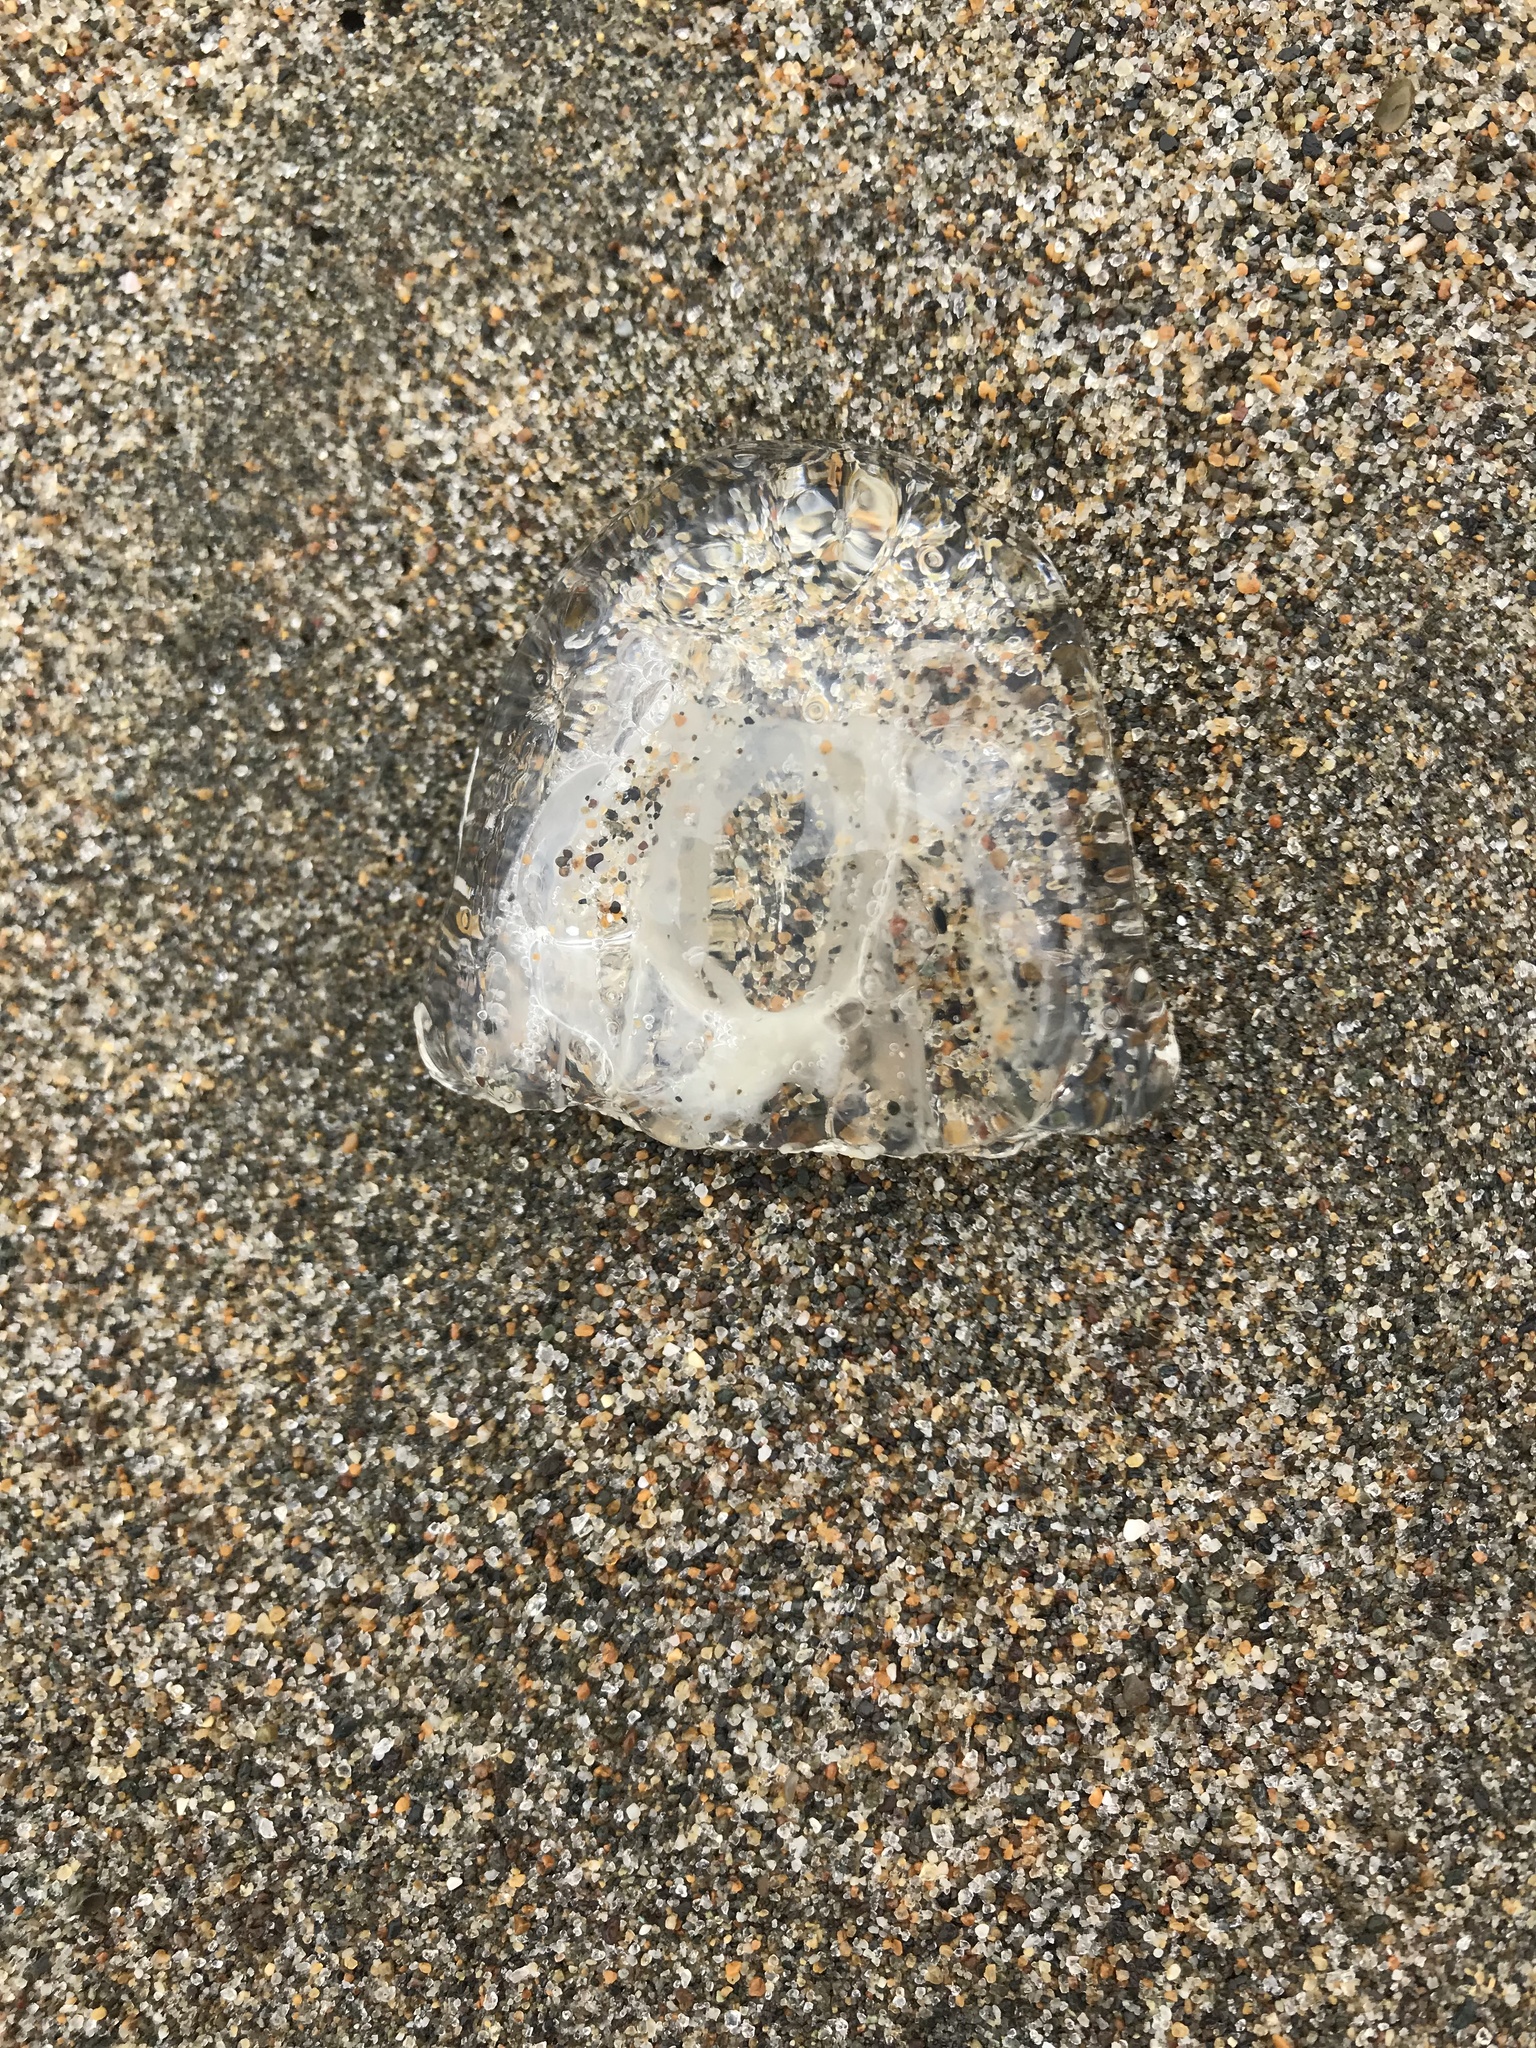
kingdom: Animalia
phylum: Cnidaria
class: Hydrozoa
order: Anthoathecata
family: Corynidae
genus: Scrippsia
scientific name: Scrippsia pacifica
